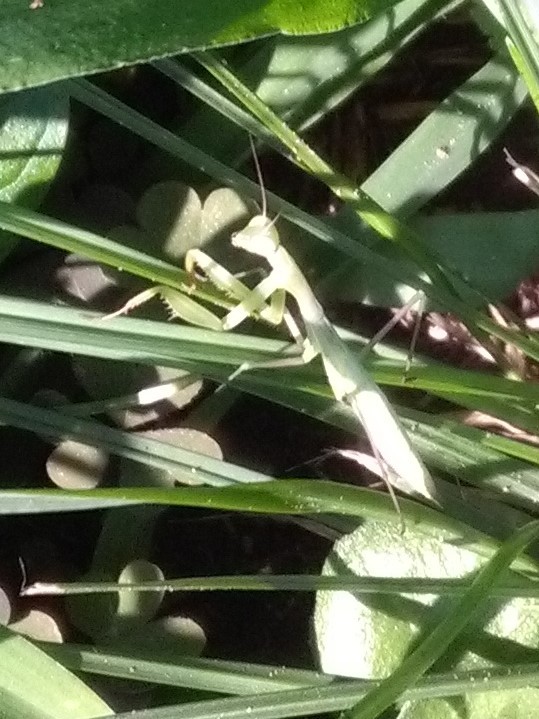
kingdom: Animalia
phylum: Arthropoda
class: Insecta
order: Mantodea
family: Mantidae
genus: Mantis
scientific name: Mantis religiosa
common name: Praying mantis
